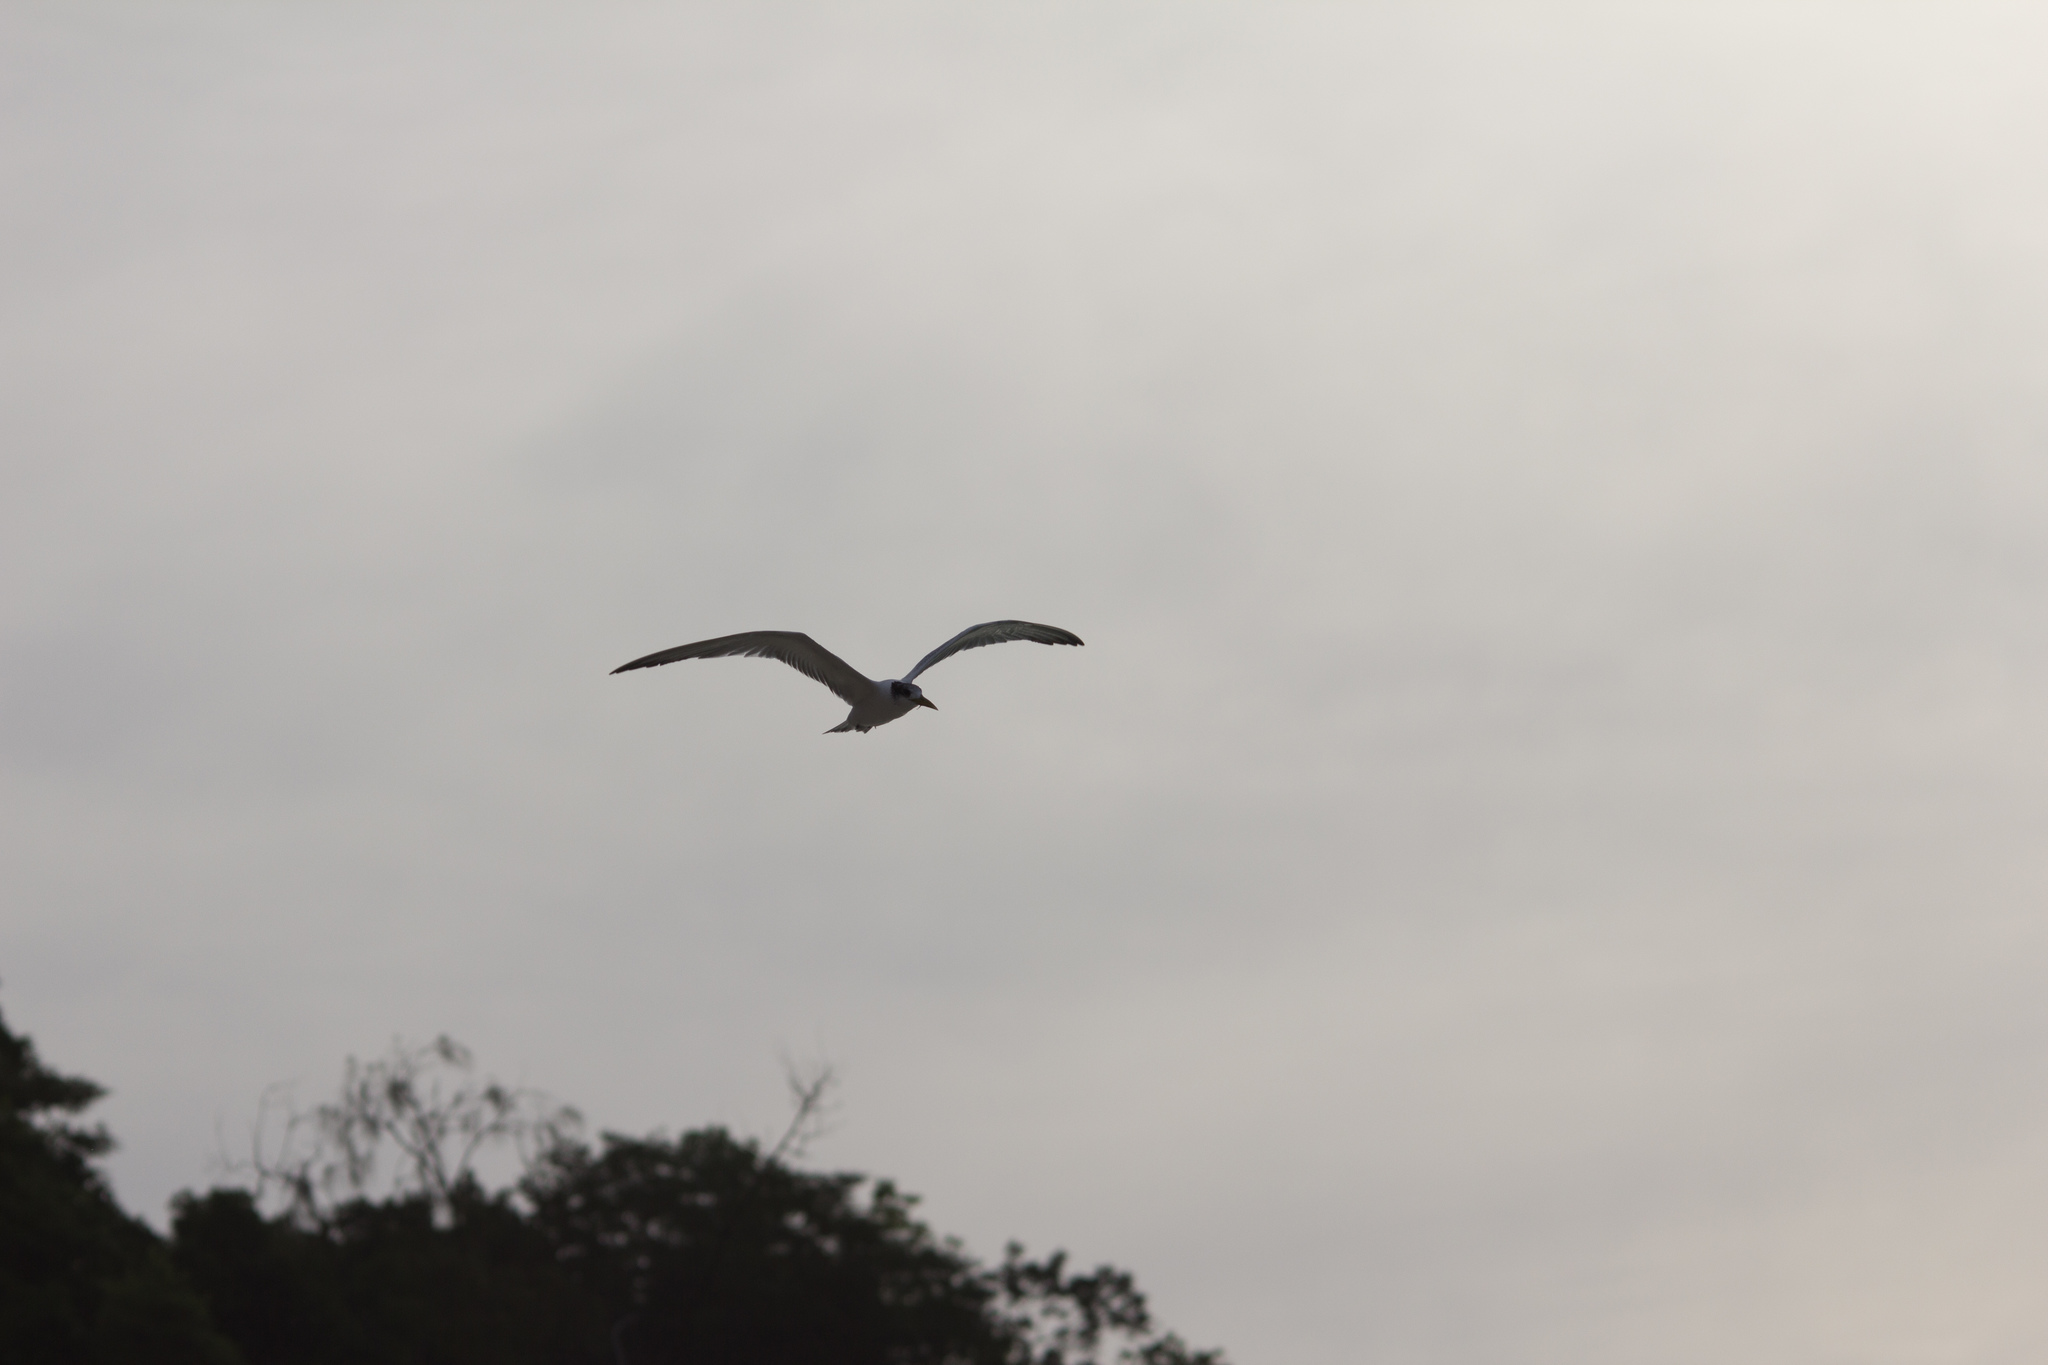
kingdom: Animalia
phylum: Chordata
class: Aves
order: Charadriiformes
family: Laridae
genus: Thalasseus
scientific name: Thalasseus bergii
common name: Greater crested tern
